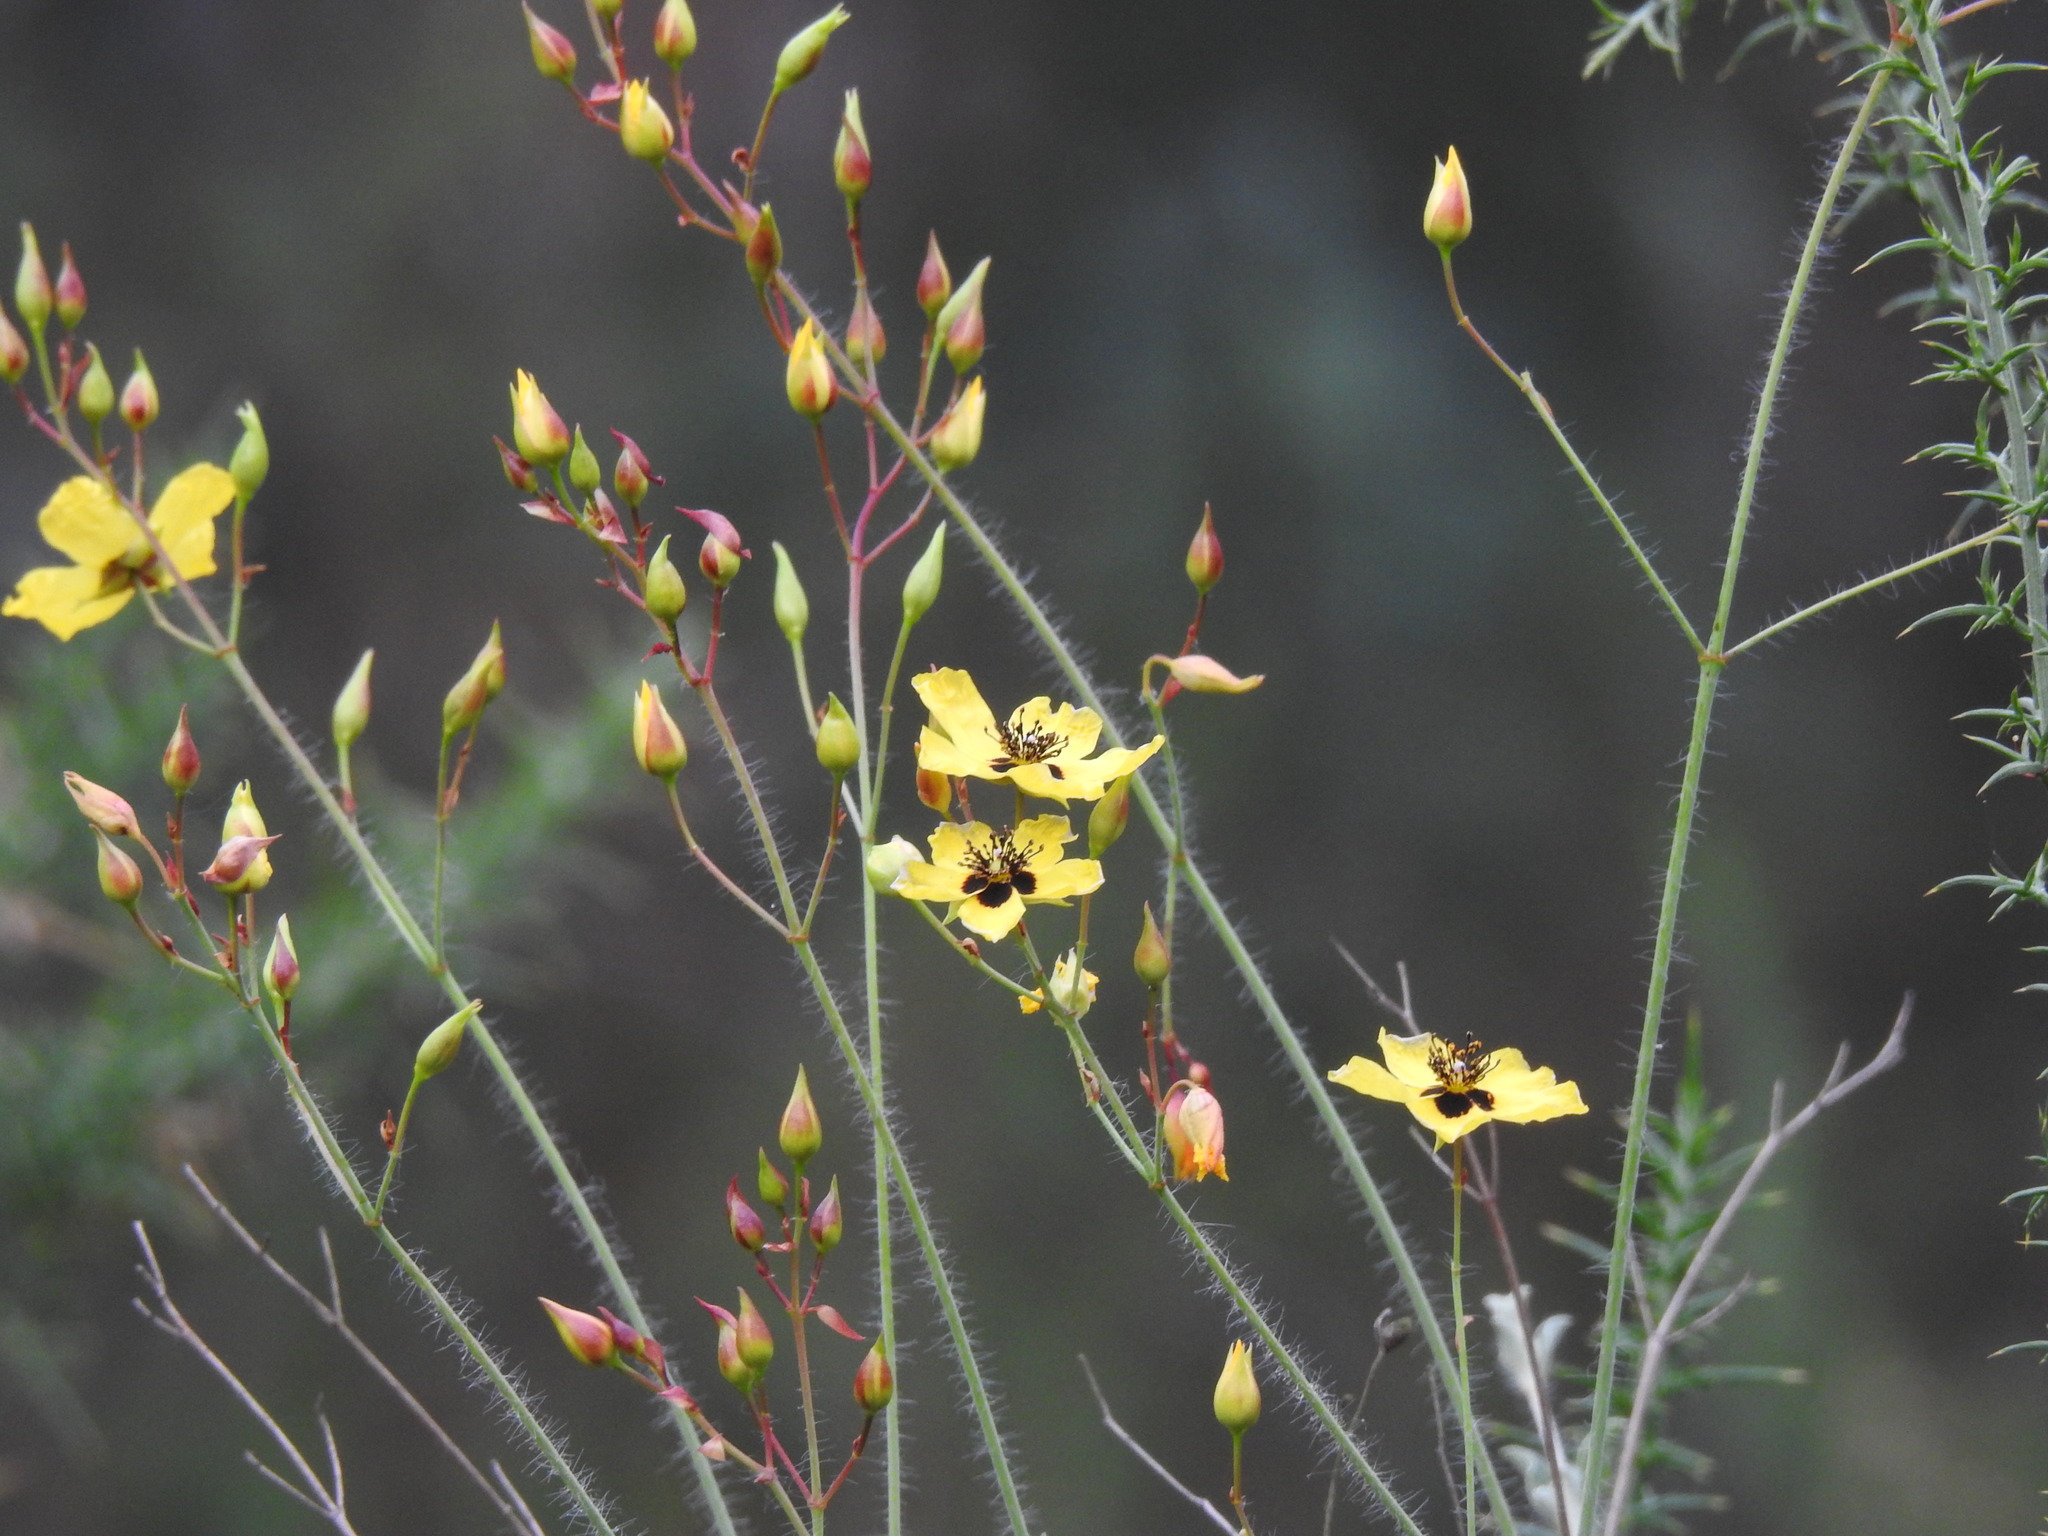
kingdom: Plantae
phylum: Tracheophyta
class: Magnoliopsida
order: Malvales
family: Cistaceae
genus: Cistus
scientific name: Cistus ocymoides
